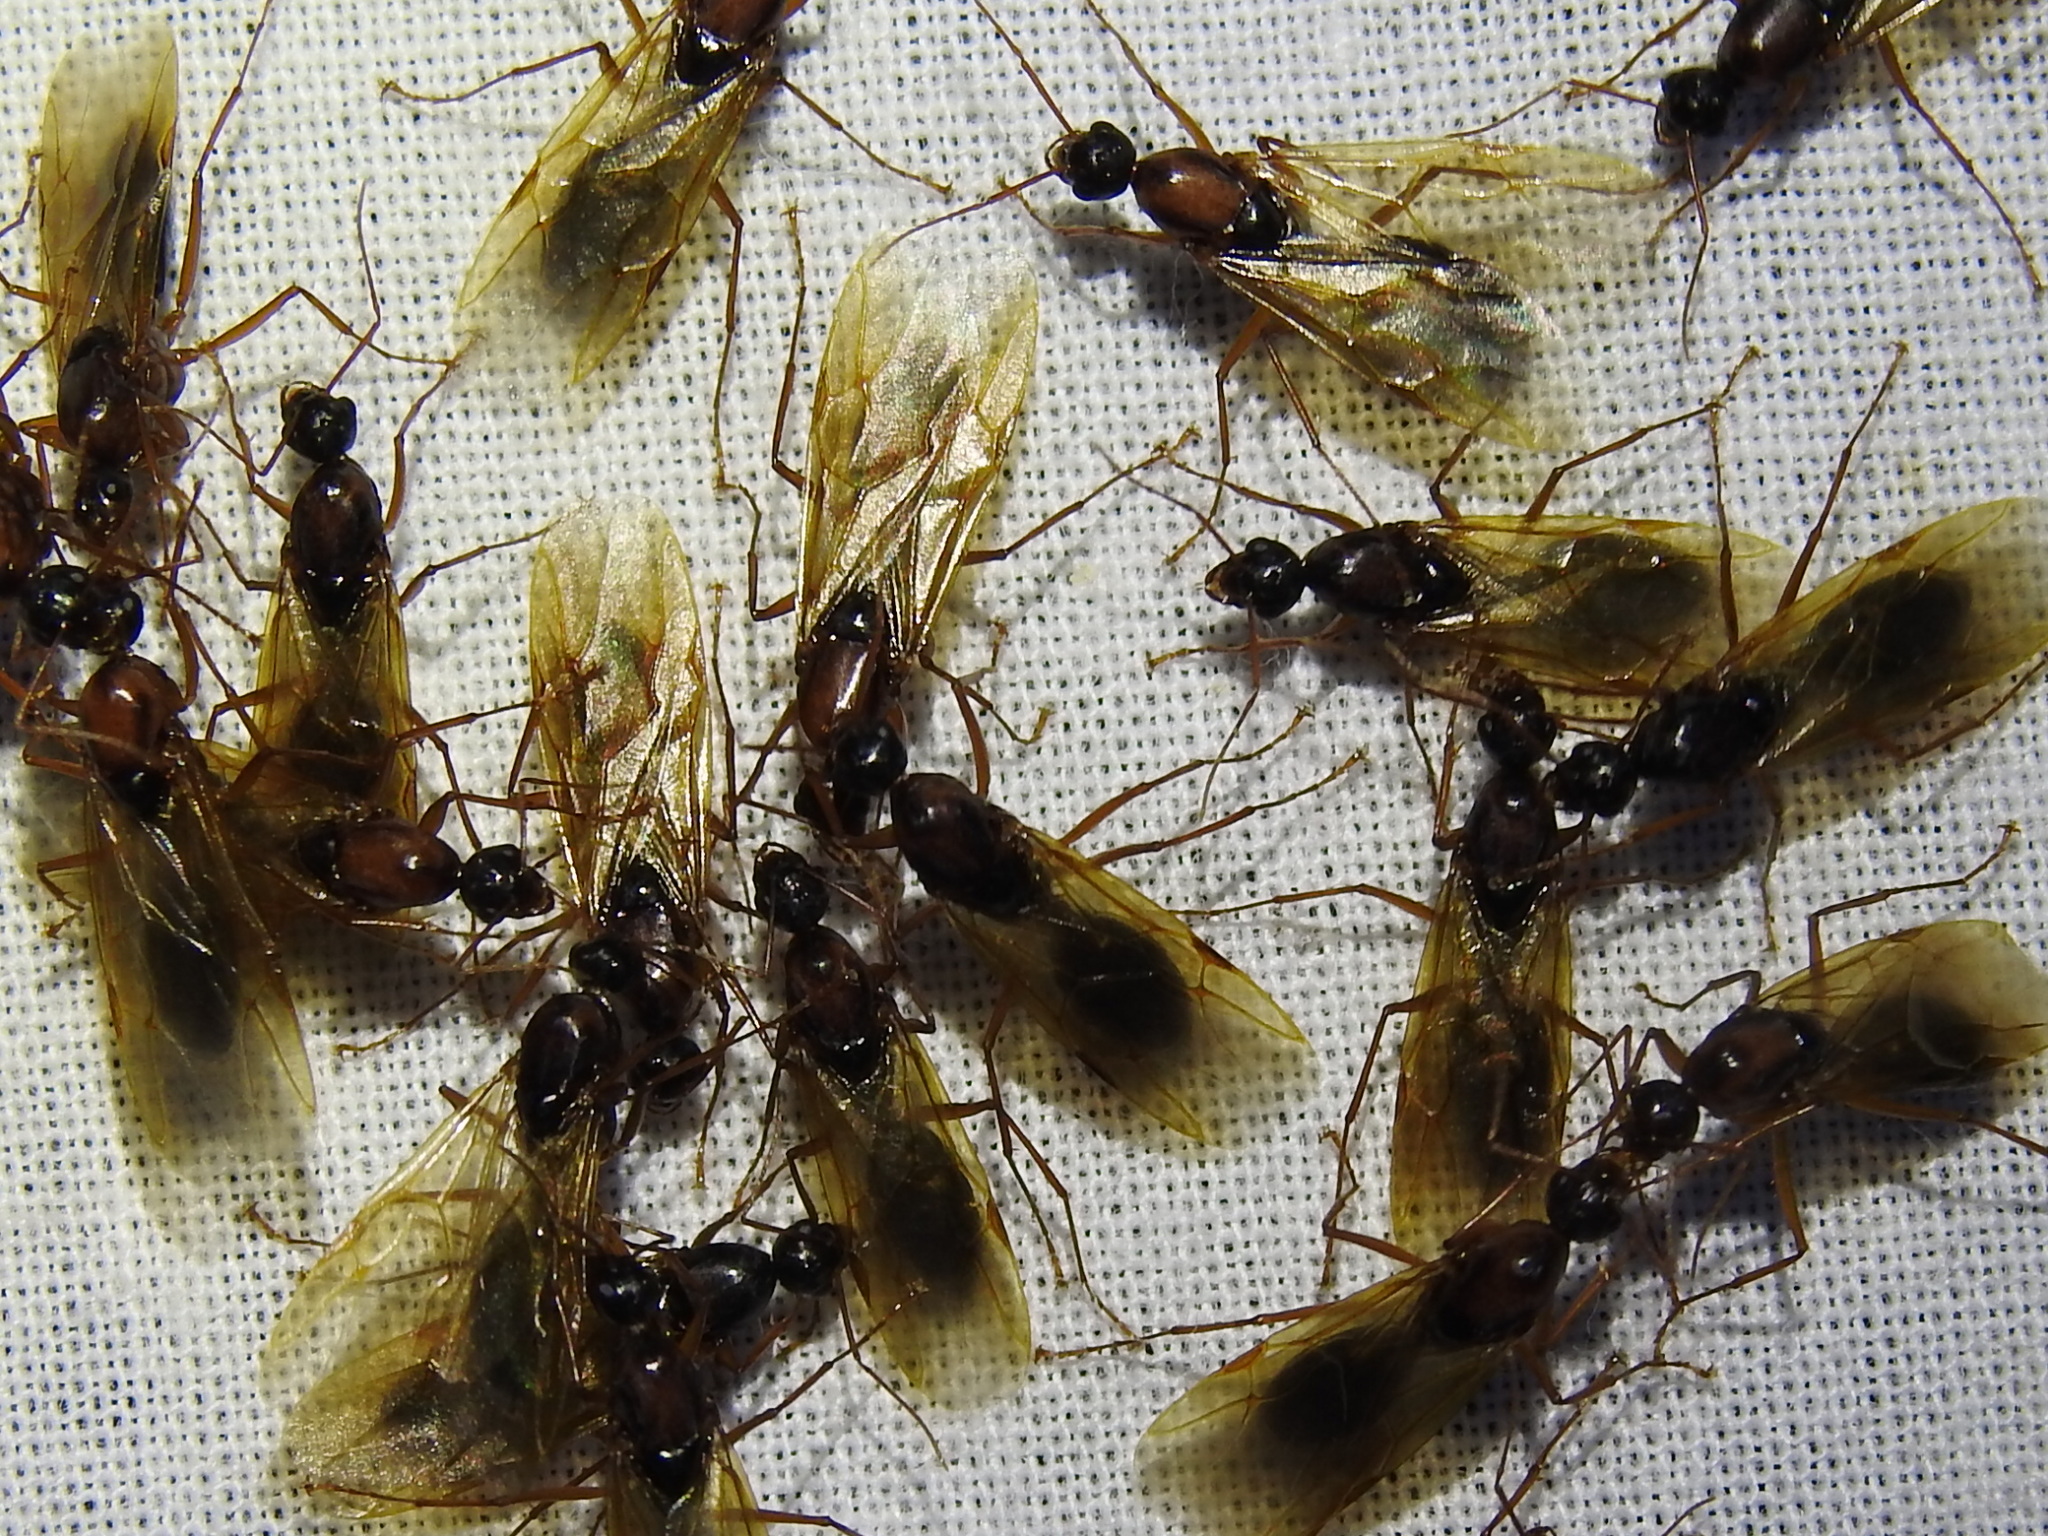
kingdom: Animalia
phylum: Arthropoda
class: Insecta
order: Hymenoptera
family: Formicidae
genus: Camponotus
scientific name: Camponotus texanus
